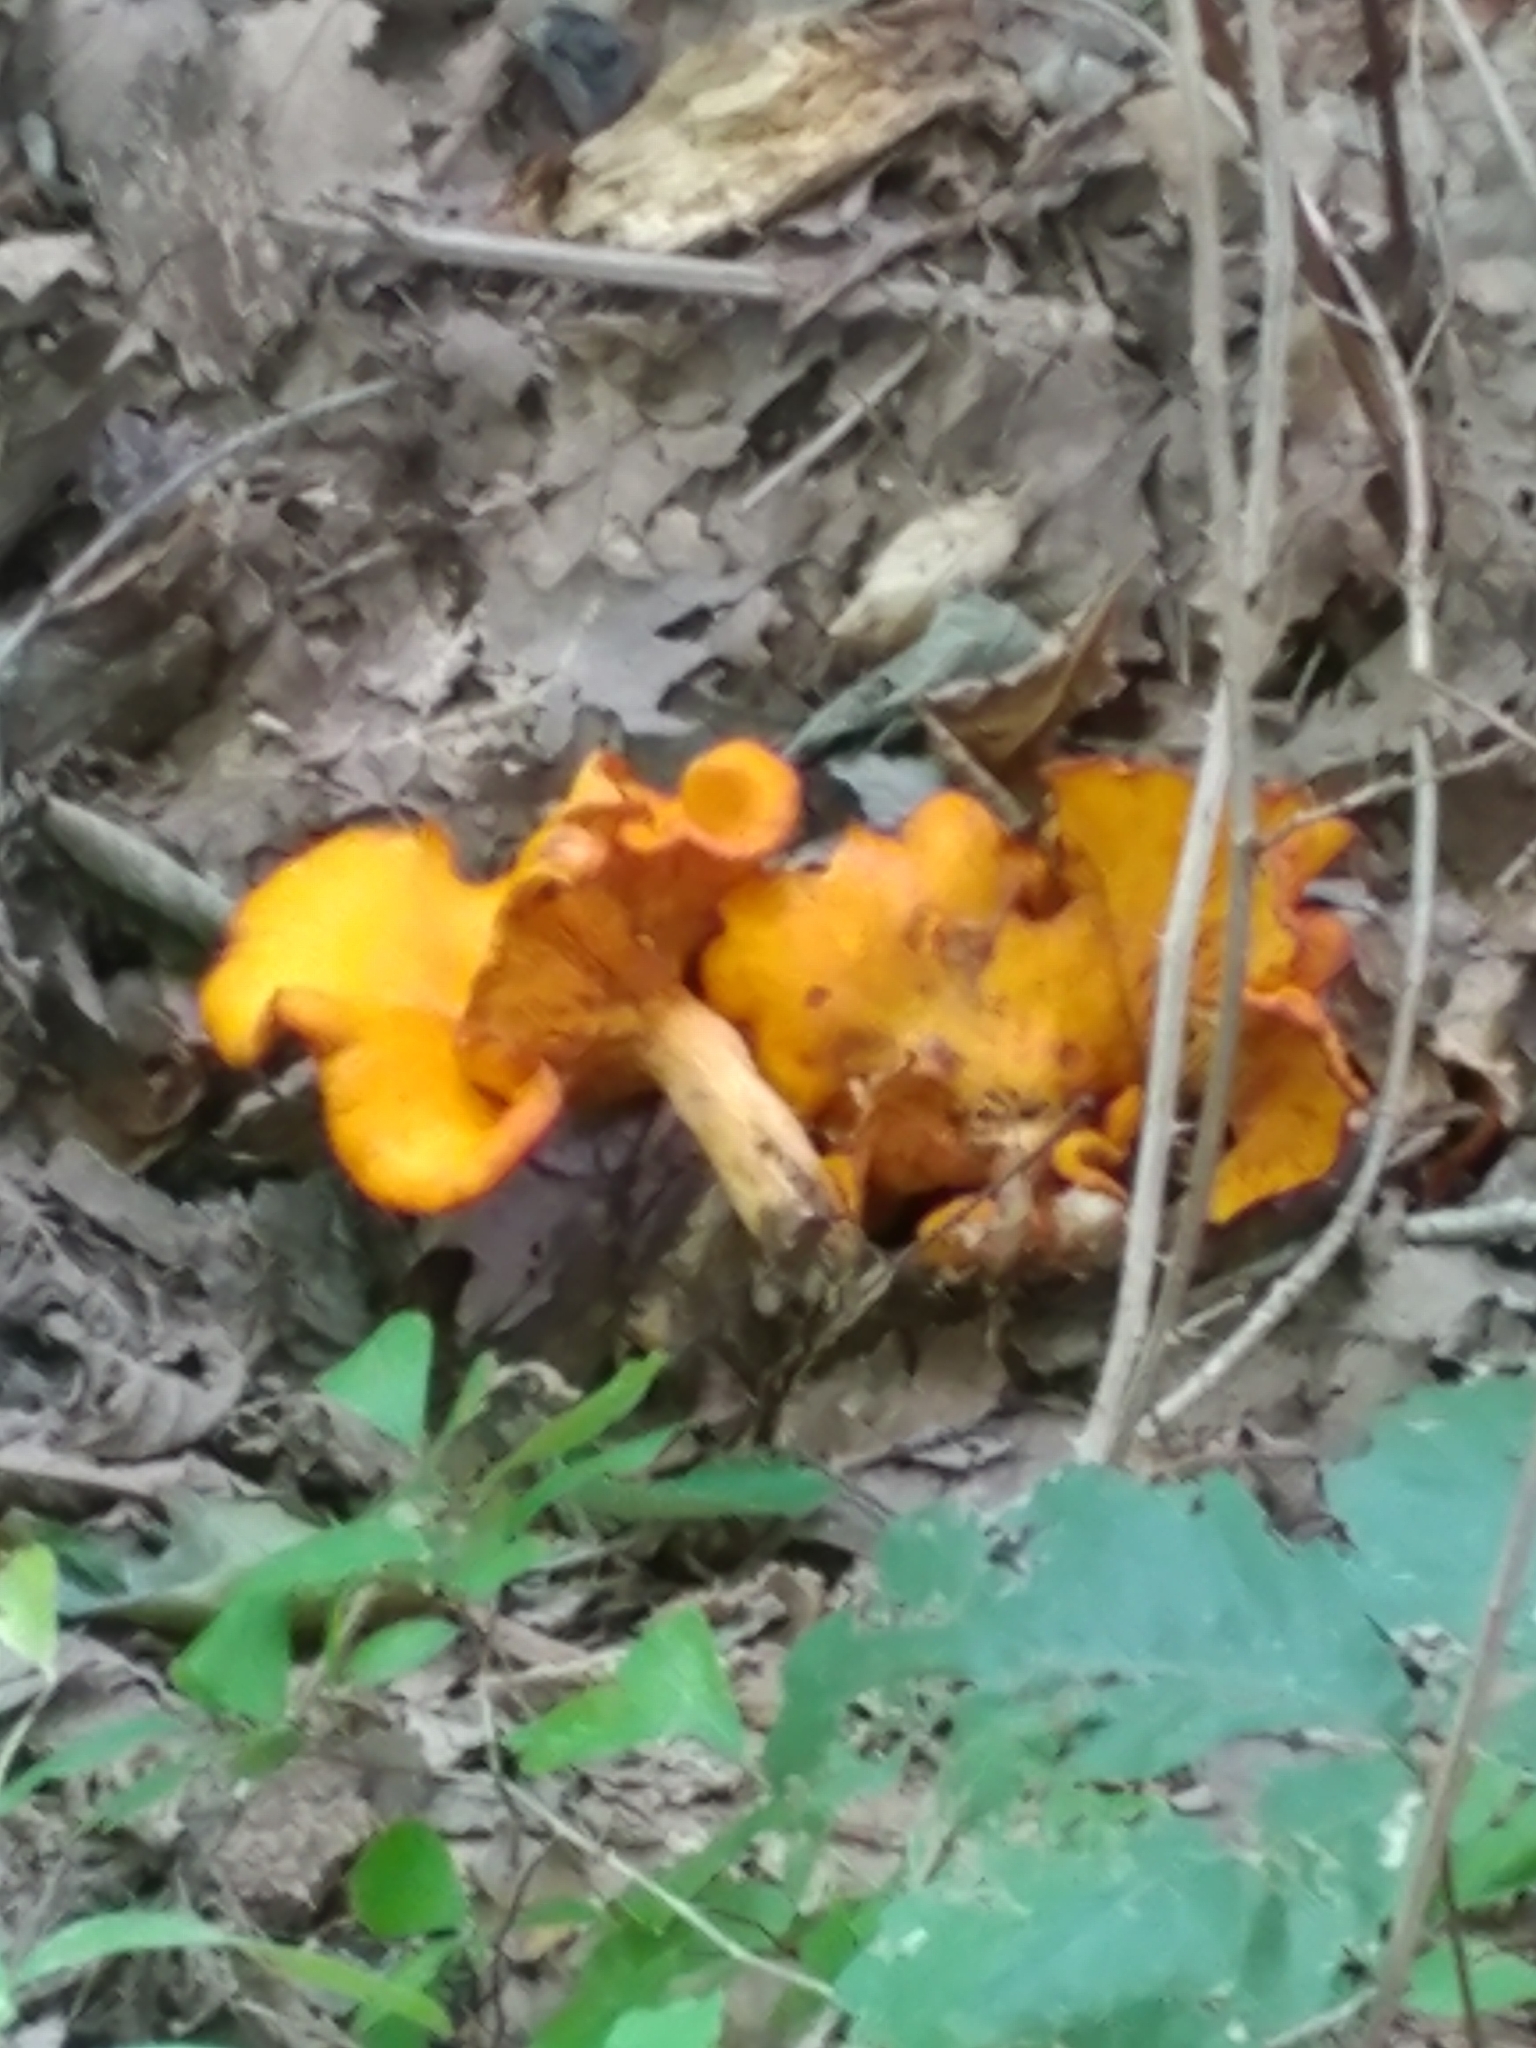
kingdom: Fungi
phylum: Basidiomycota
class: Agaricomycetes
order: Agaricales
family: Omphalotaceae
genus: Omphalotus
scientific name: Omphalotus illudens
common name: Jack o lantern
